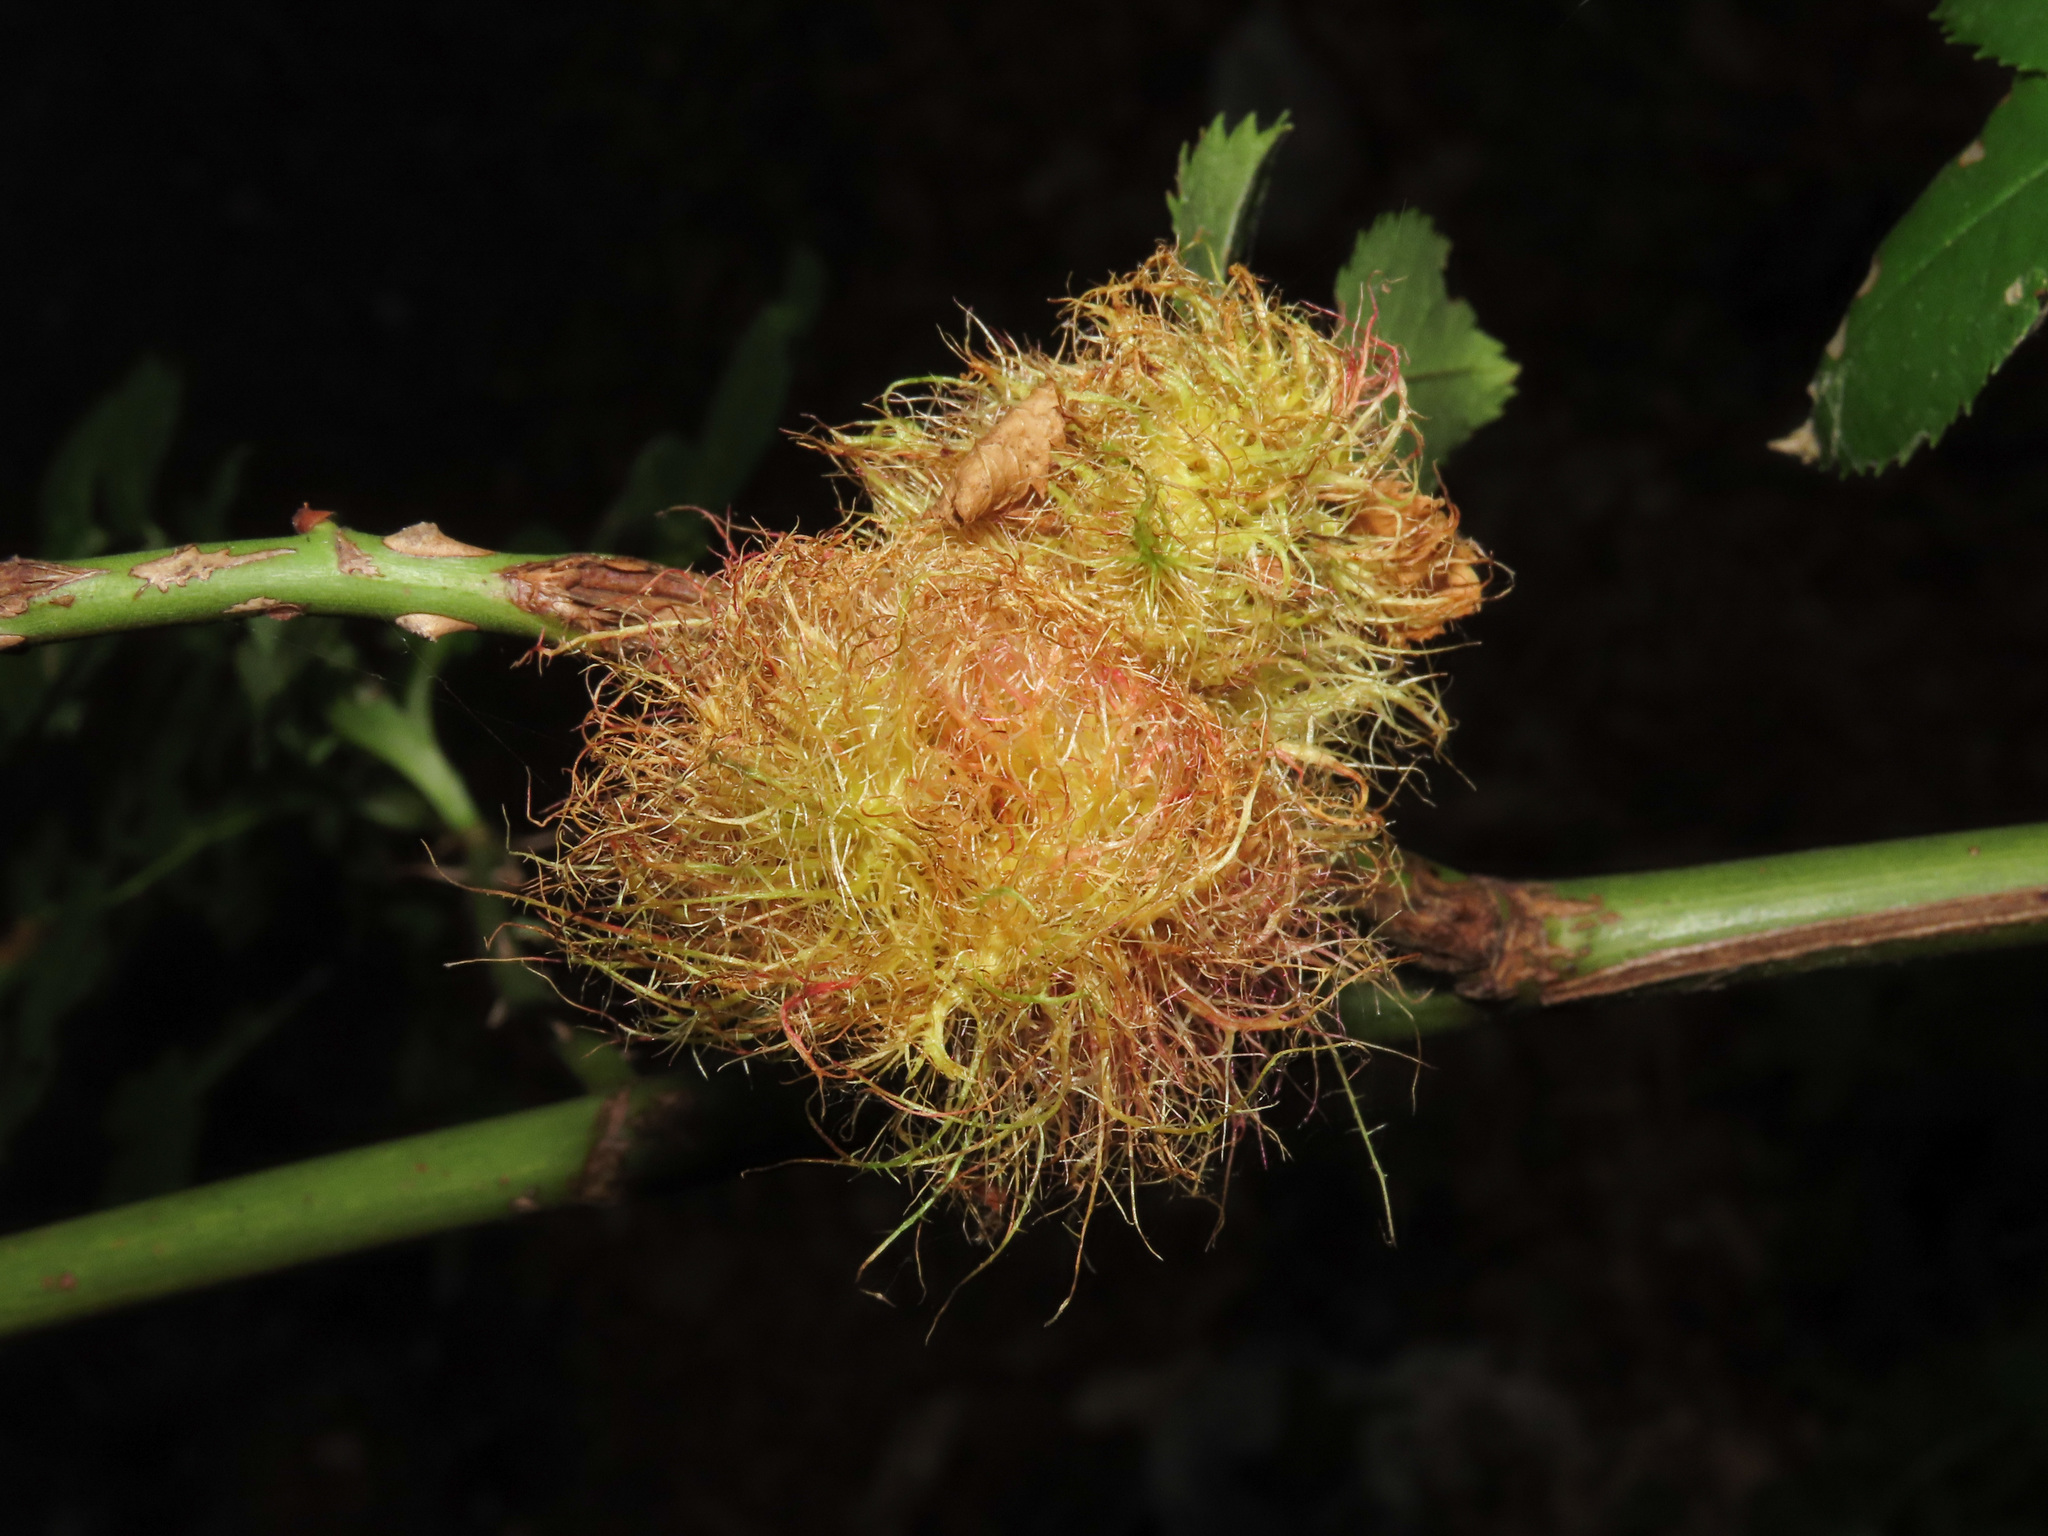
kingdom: Animalia
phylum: Arthropoda
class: Insecta
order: Hymenoptera
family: Cynipidae
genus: Diplolepis
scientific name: Diplolepis rosae
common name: Bedeguar gall
